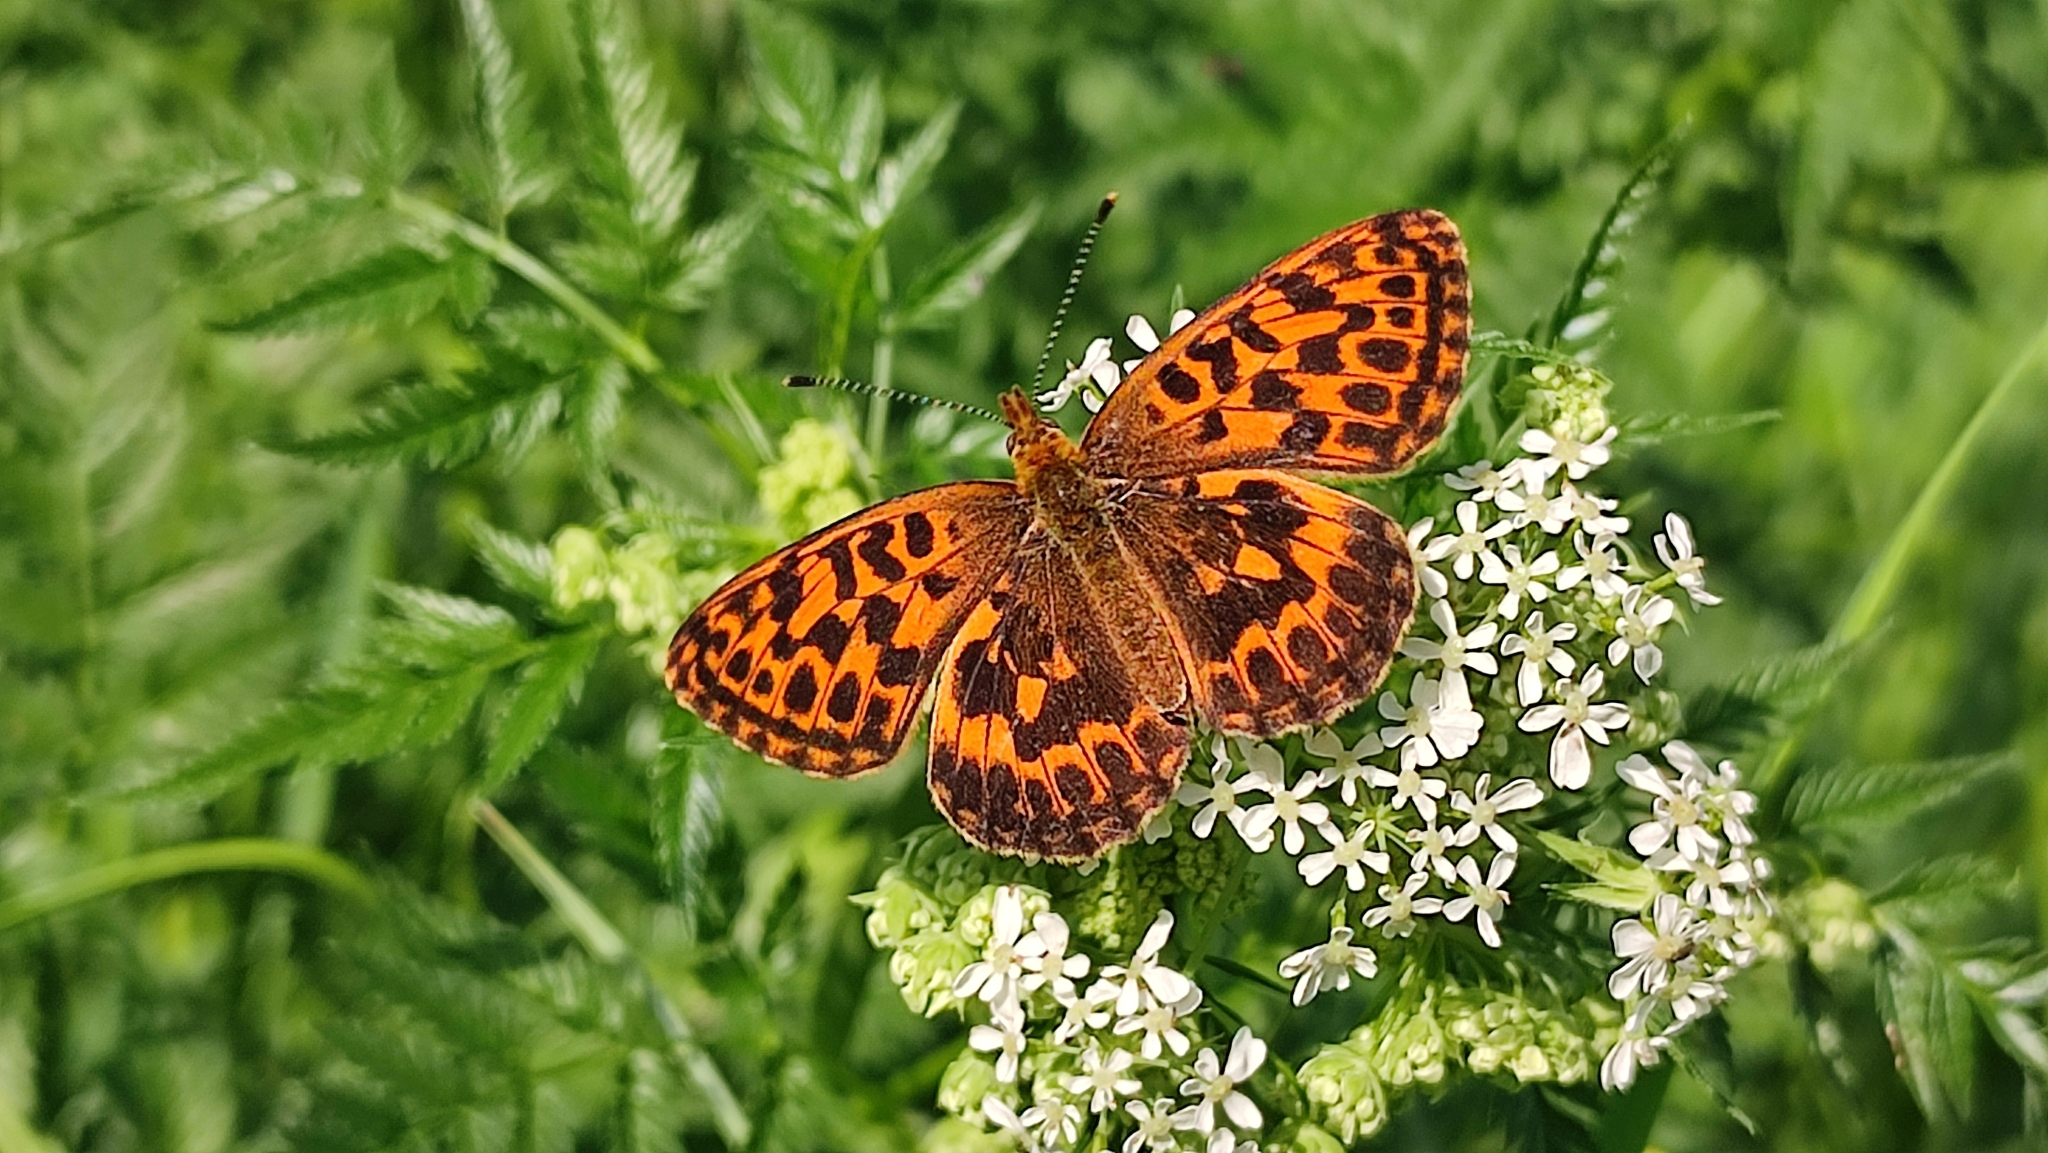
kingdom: Animalia
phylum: Arthropoda
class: Insecta
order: Lepidoptera
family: Nymphalidae
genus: Boloria
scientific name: Boloria thore
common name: Thor's fritillary
